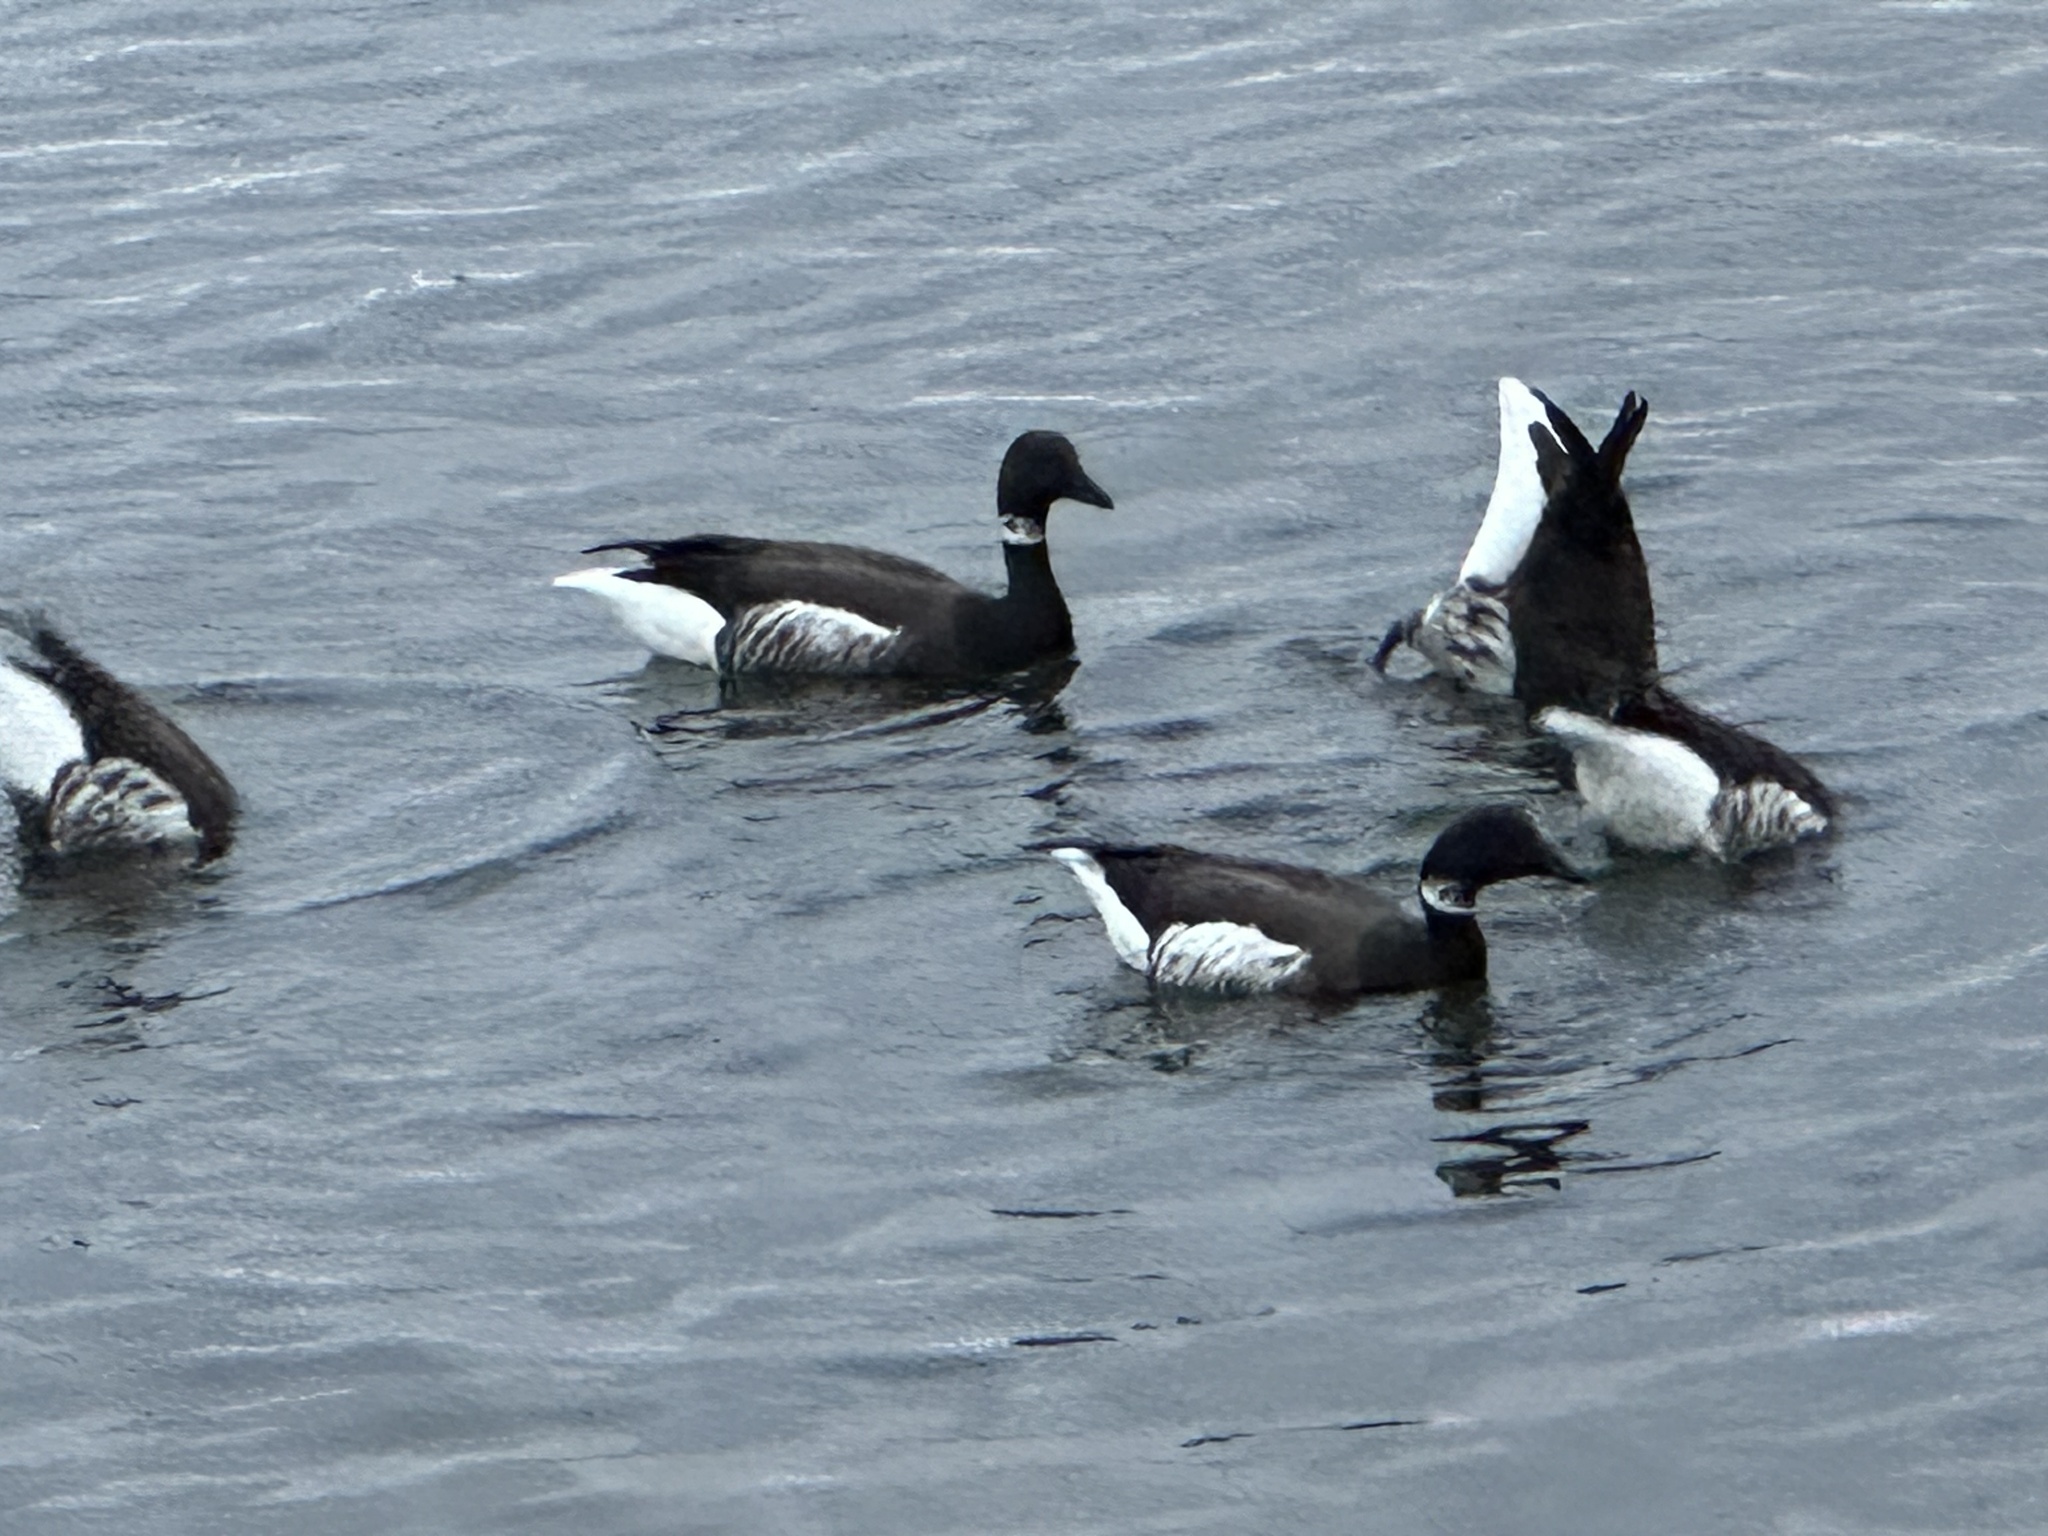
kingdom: Animalia
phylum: Chordata
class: Aves
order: Anseriformes
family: Anatidae
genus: Branta
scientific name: Branta bernicla
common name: Brant goose
